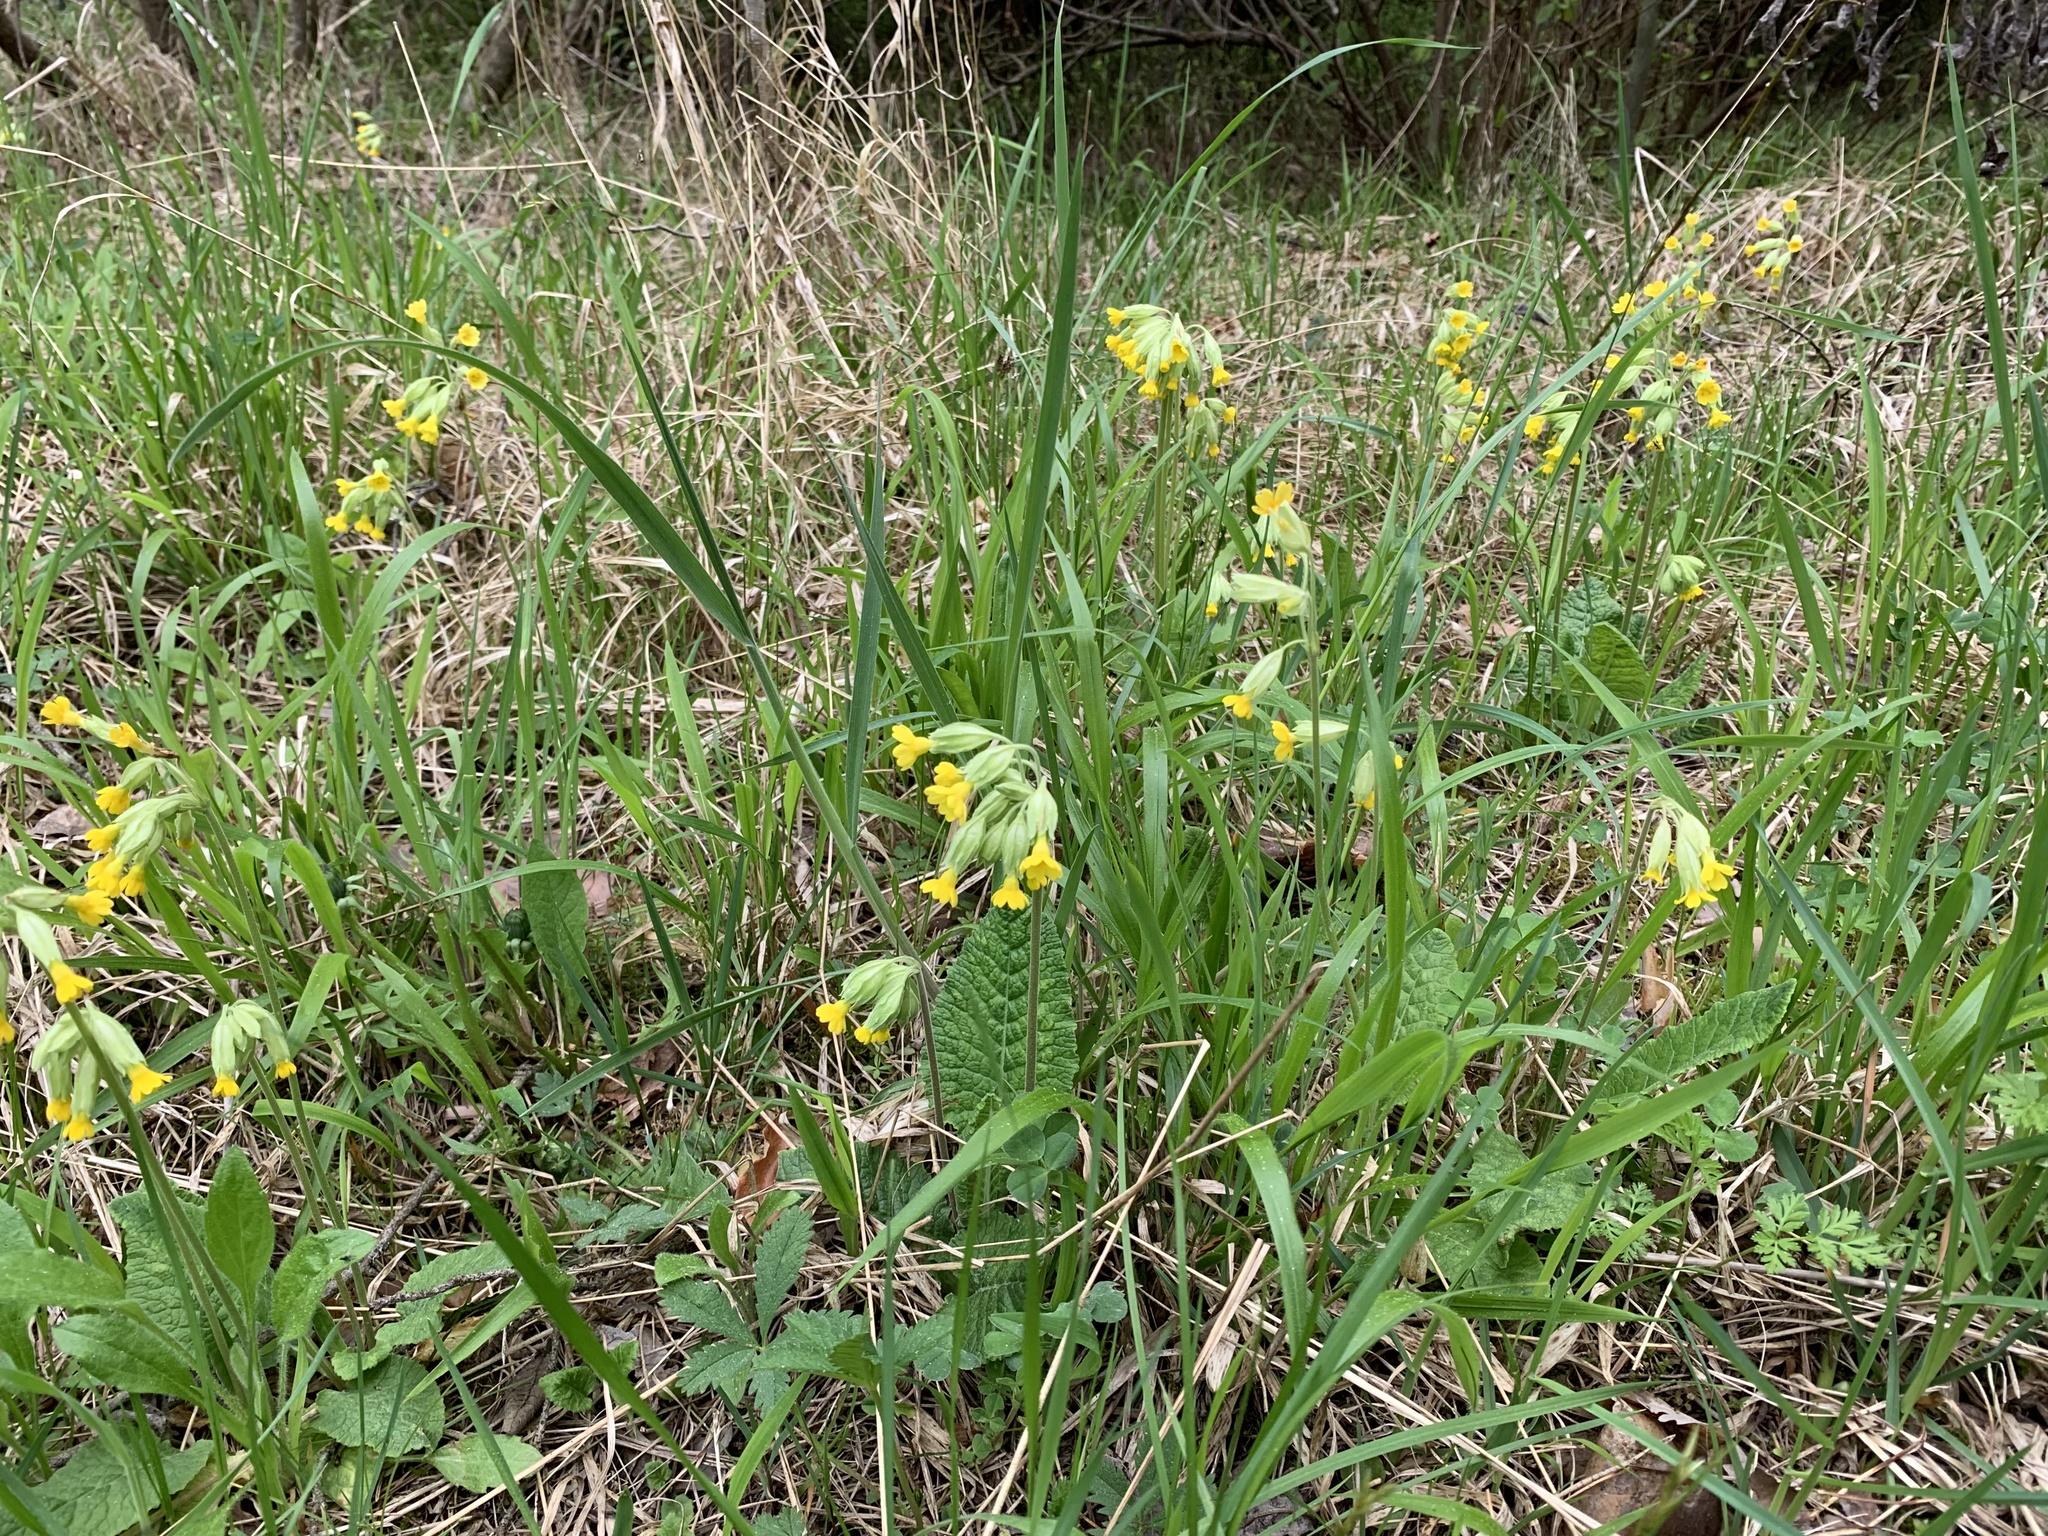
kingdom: Plantae
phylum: Tracheophyta
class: Magnoliopsida
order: Ericales
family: Primulaceae
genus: Primula
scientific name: Primula veris
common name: Cowslip
